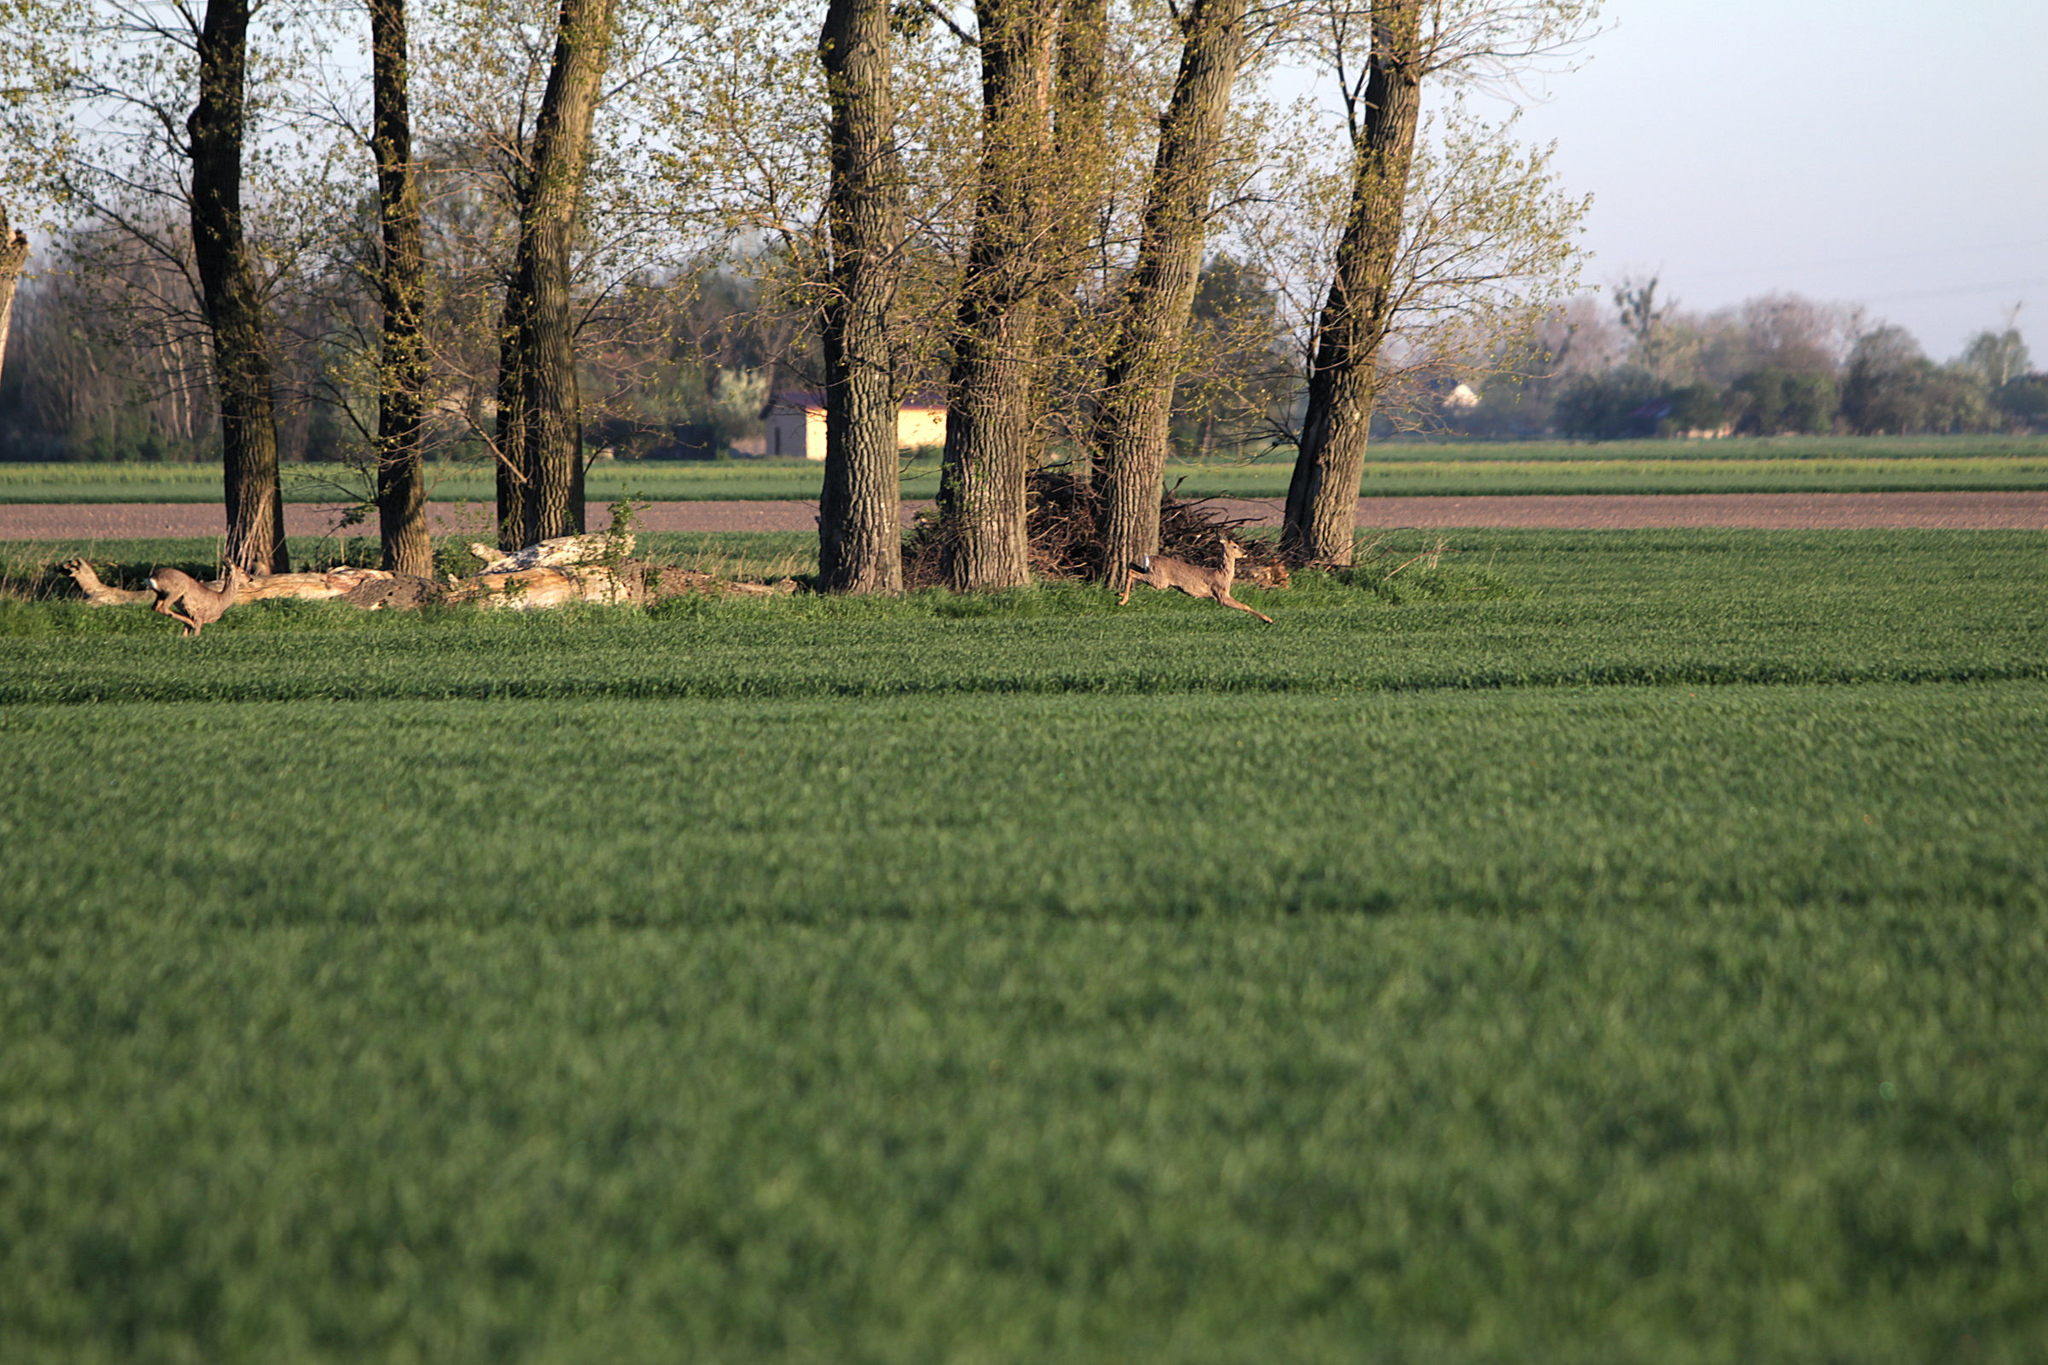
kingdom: Animalia
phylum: Chordata
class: Mammalia
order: Artiodactyla
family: Cervidae
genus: Capreolus
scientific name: Capreolus capreolus
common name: Western roe deer
